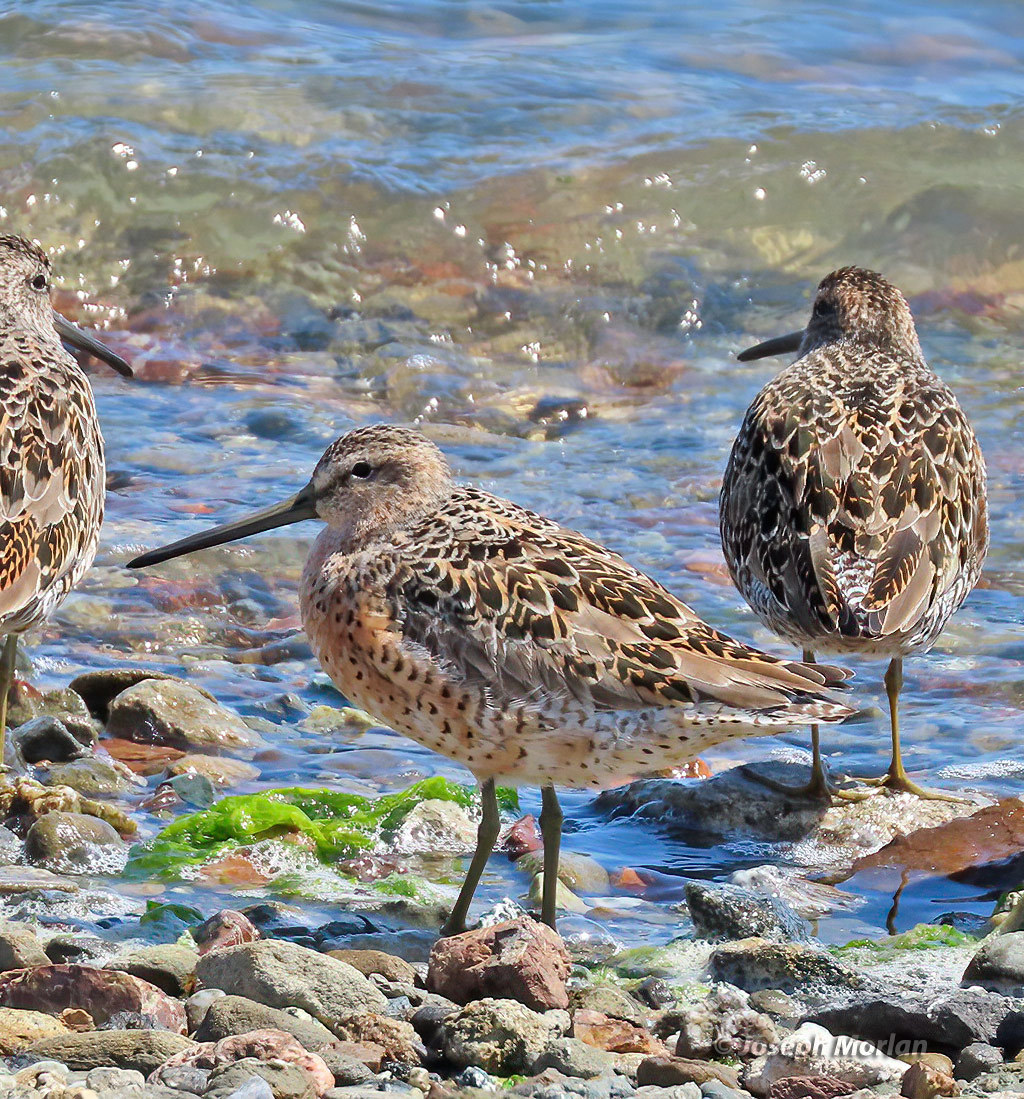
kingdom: Animalia
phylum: Chordata
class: Aves
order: Charadriiformes
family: Scolopacidae
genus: Limnodromus
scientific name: Limnodromus griseus
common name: Short-billed dowitcher
